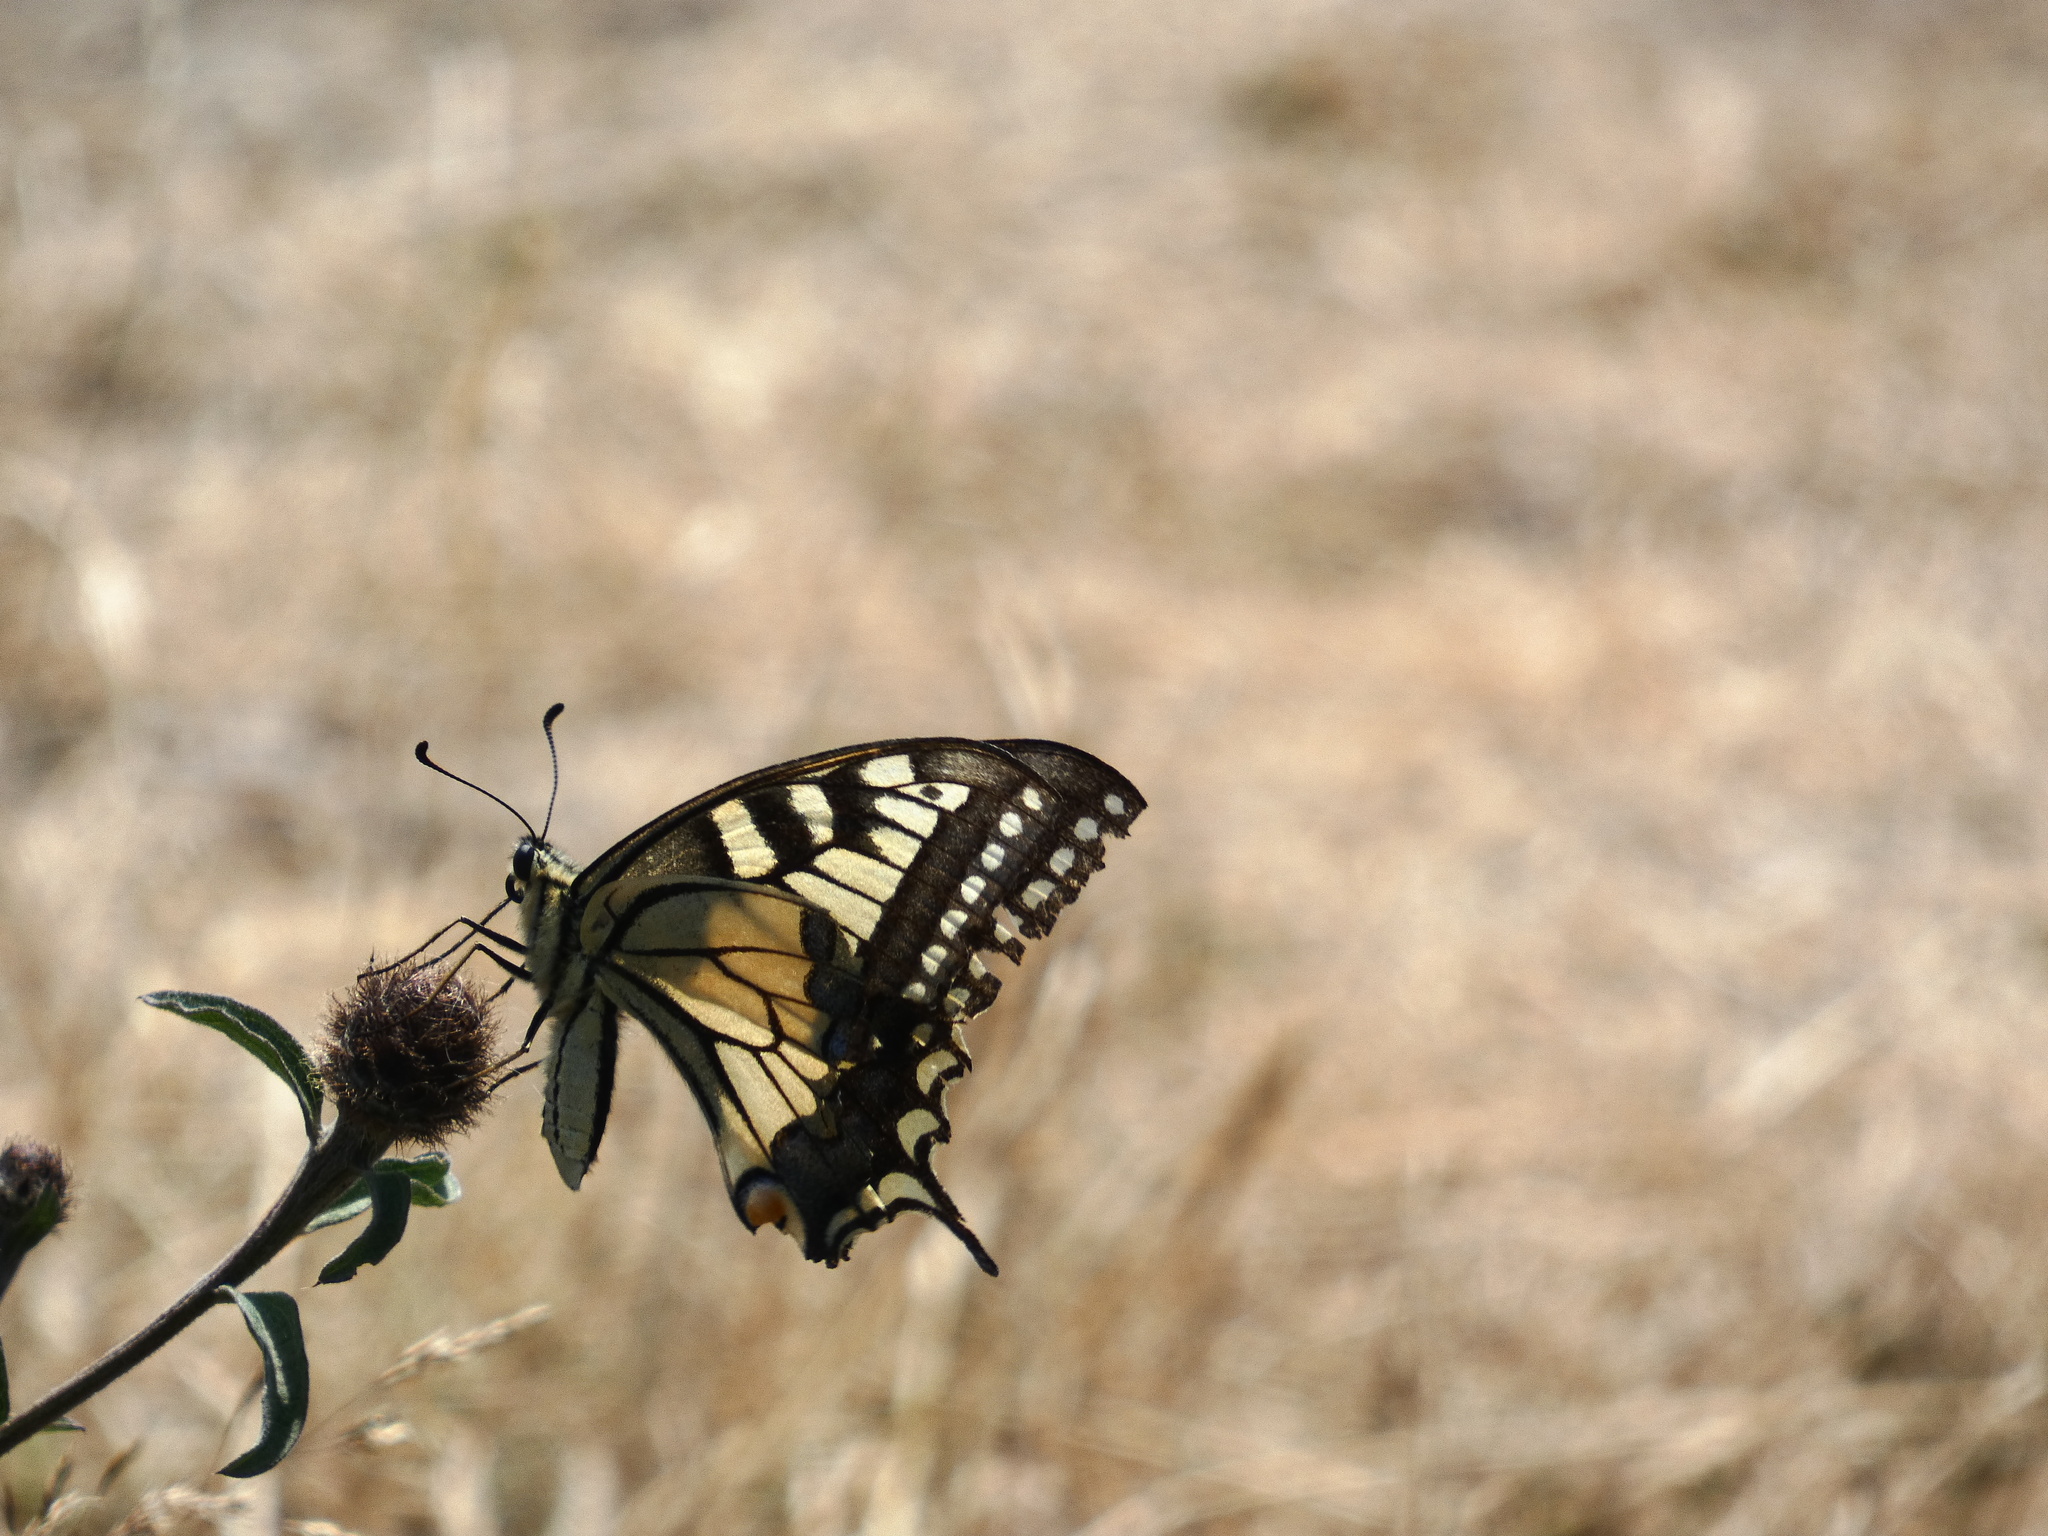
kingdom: Animalia
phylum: Arthropoda
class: Insecta
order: Lepidoptera
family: Papilionidae
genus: Papilio
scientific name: Papilio machaon
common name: Swallowtail
